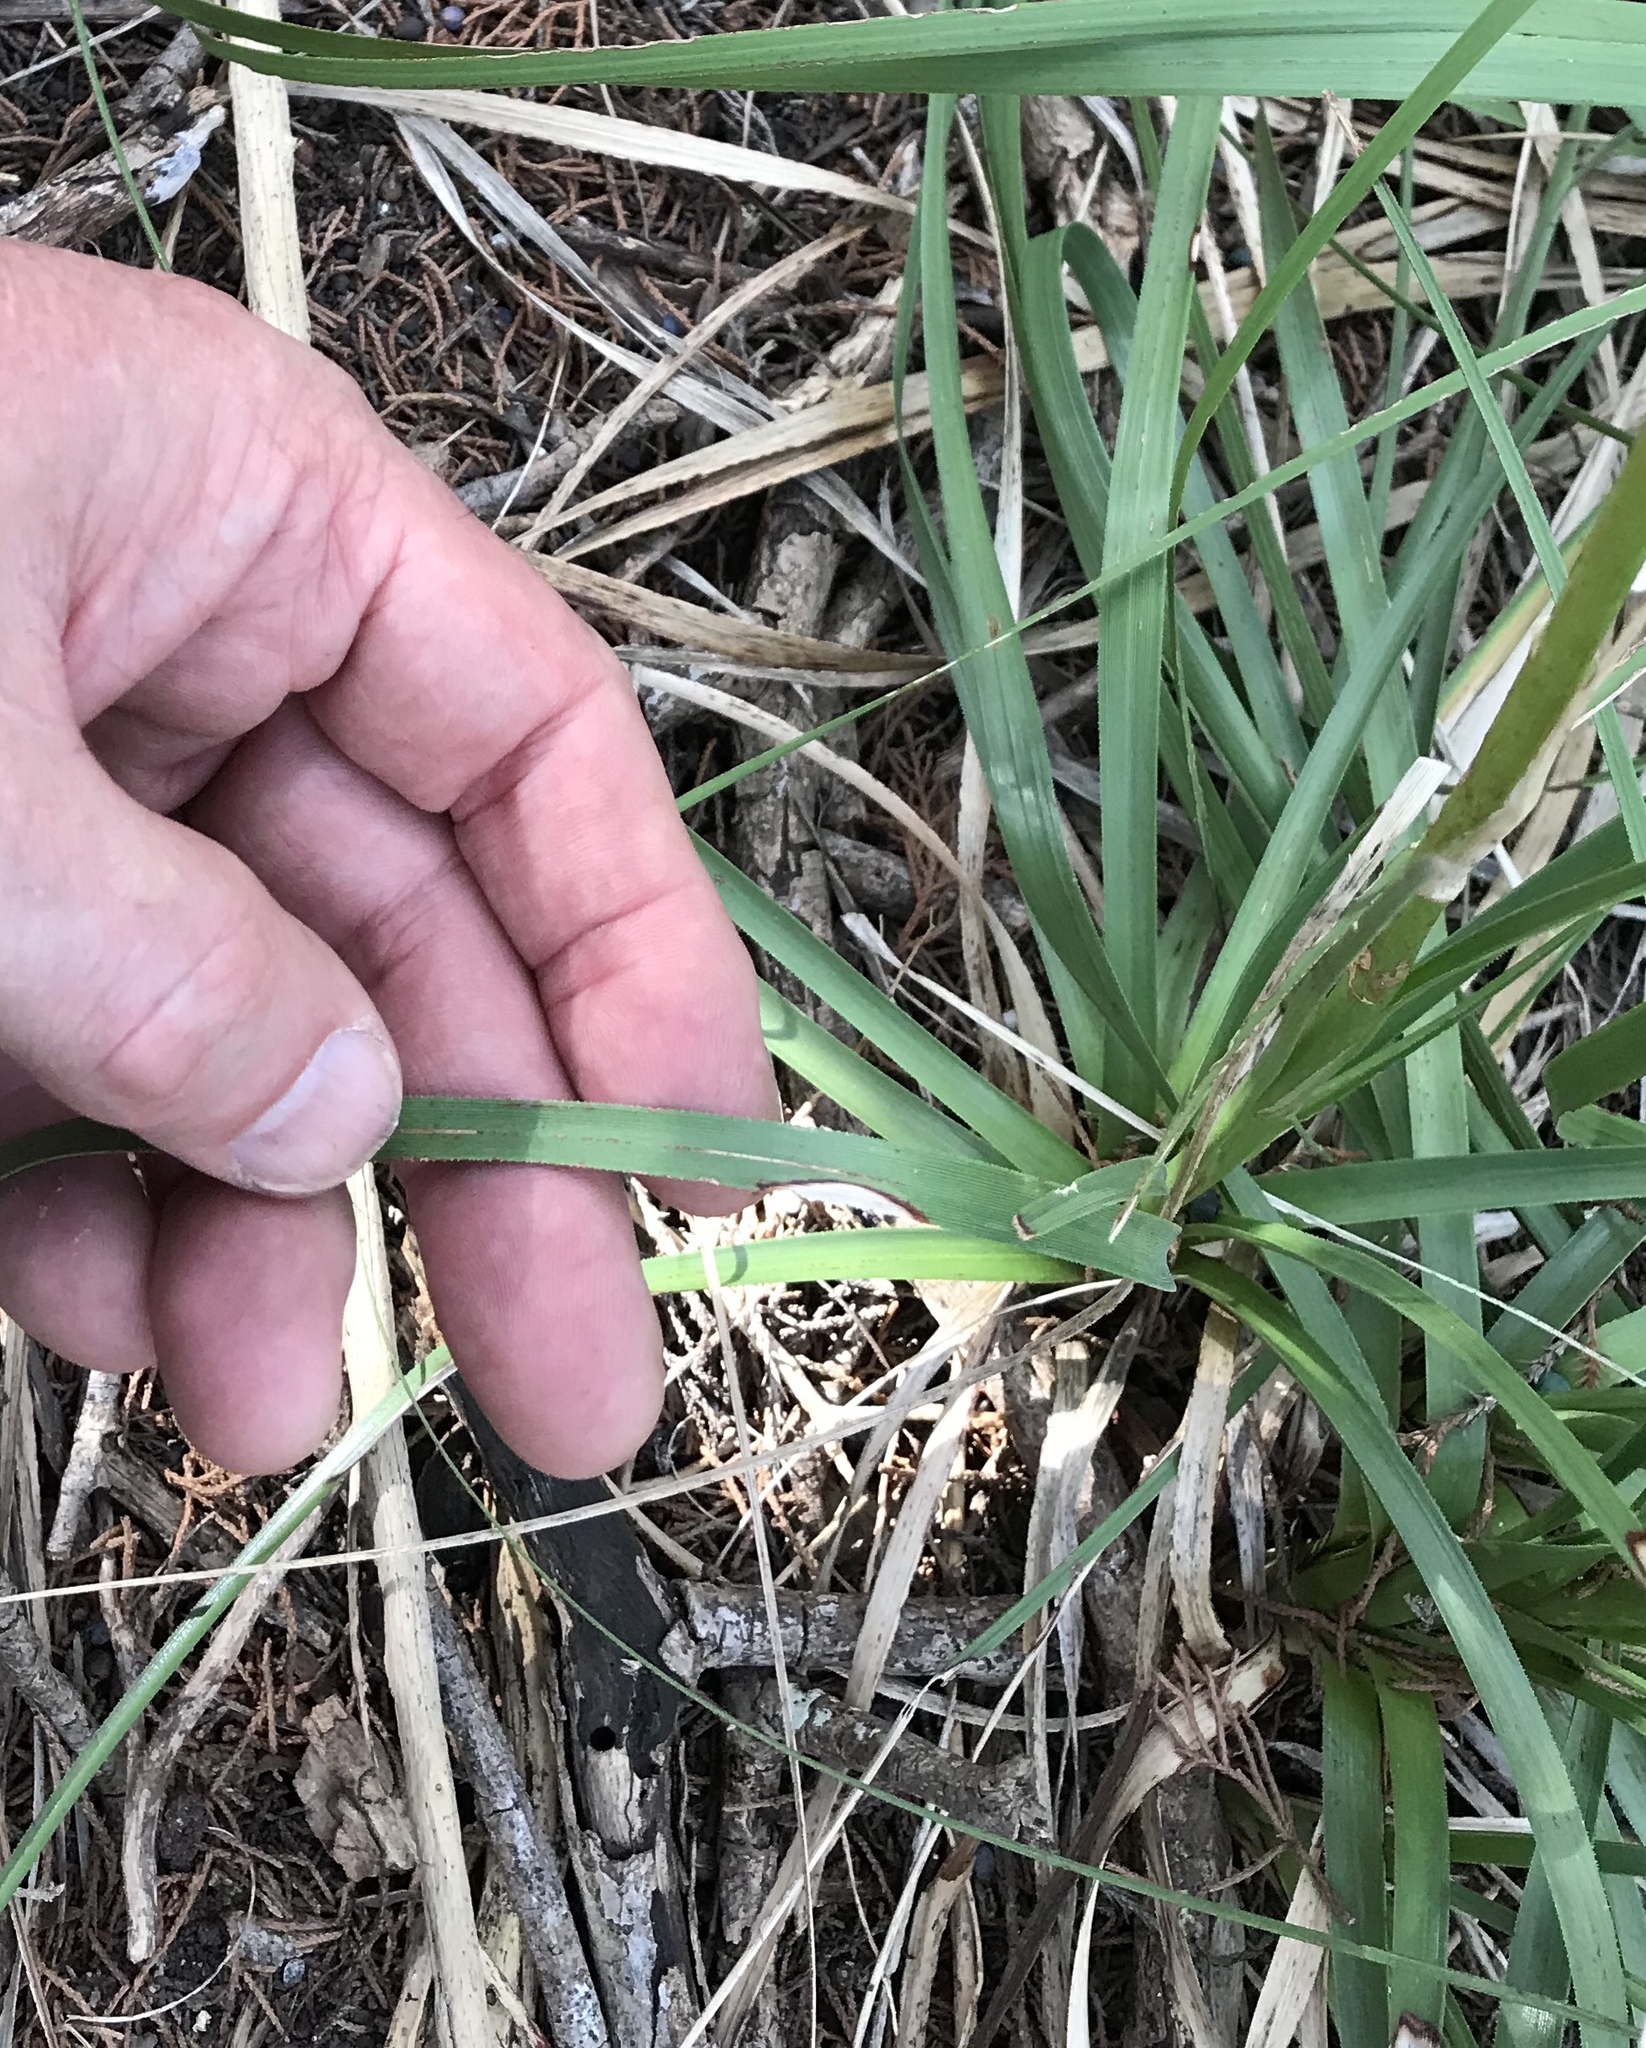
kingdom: Plantae
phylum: Tracheophyta
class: Liliopsida
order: Asparagales
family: Asparagaceae
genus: Nolina
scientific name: Nolina lindheimeriana
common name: Lindheimer's bear-grass
